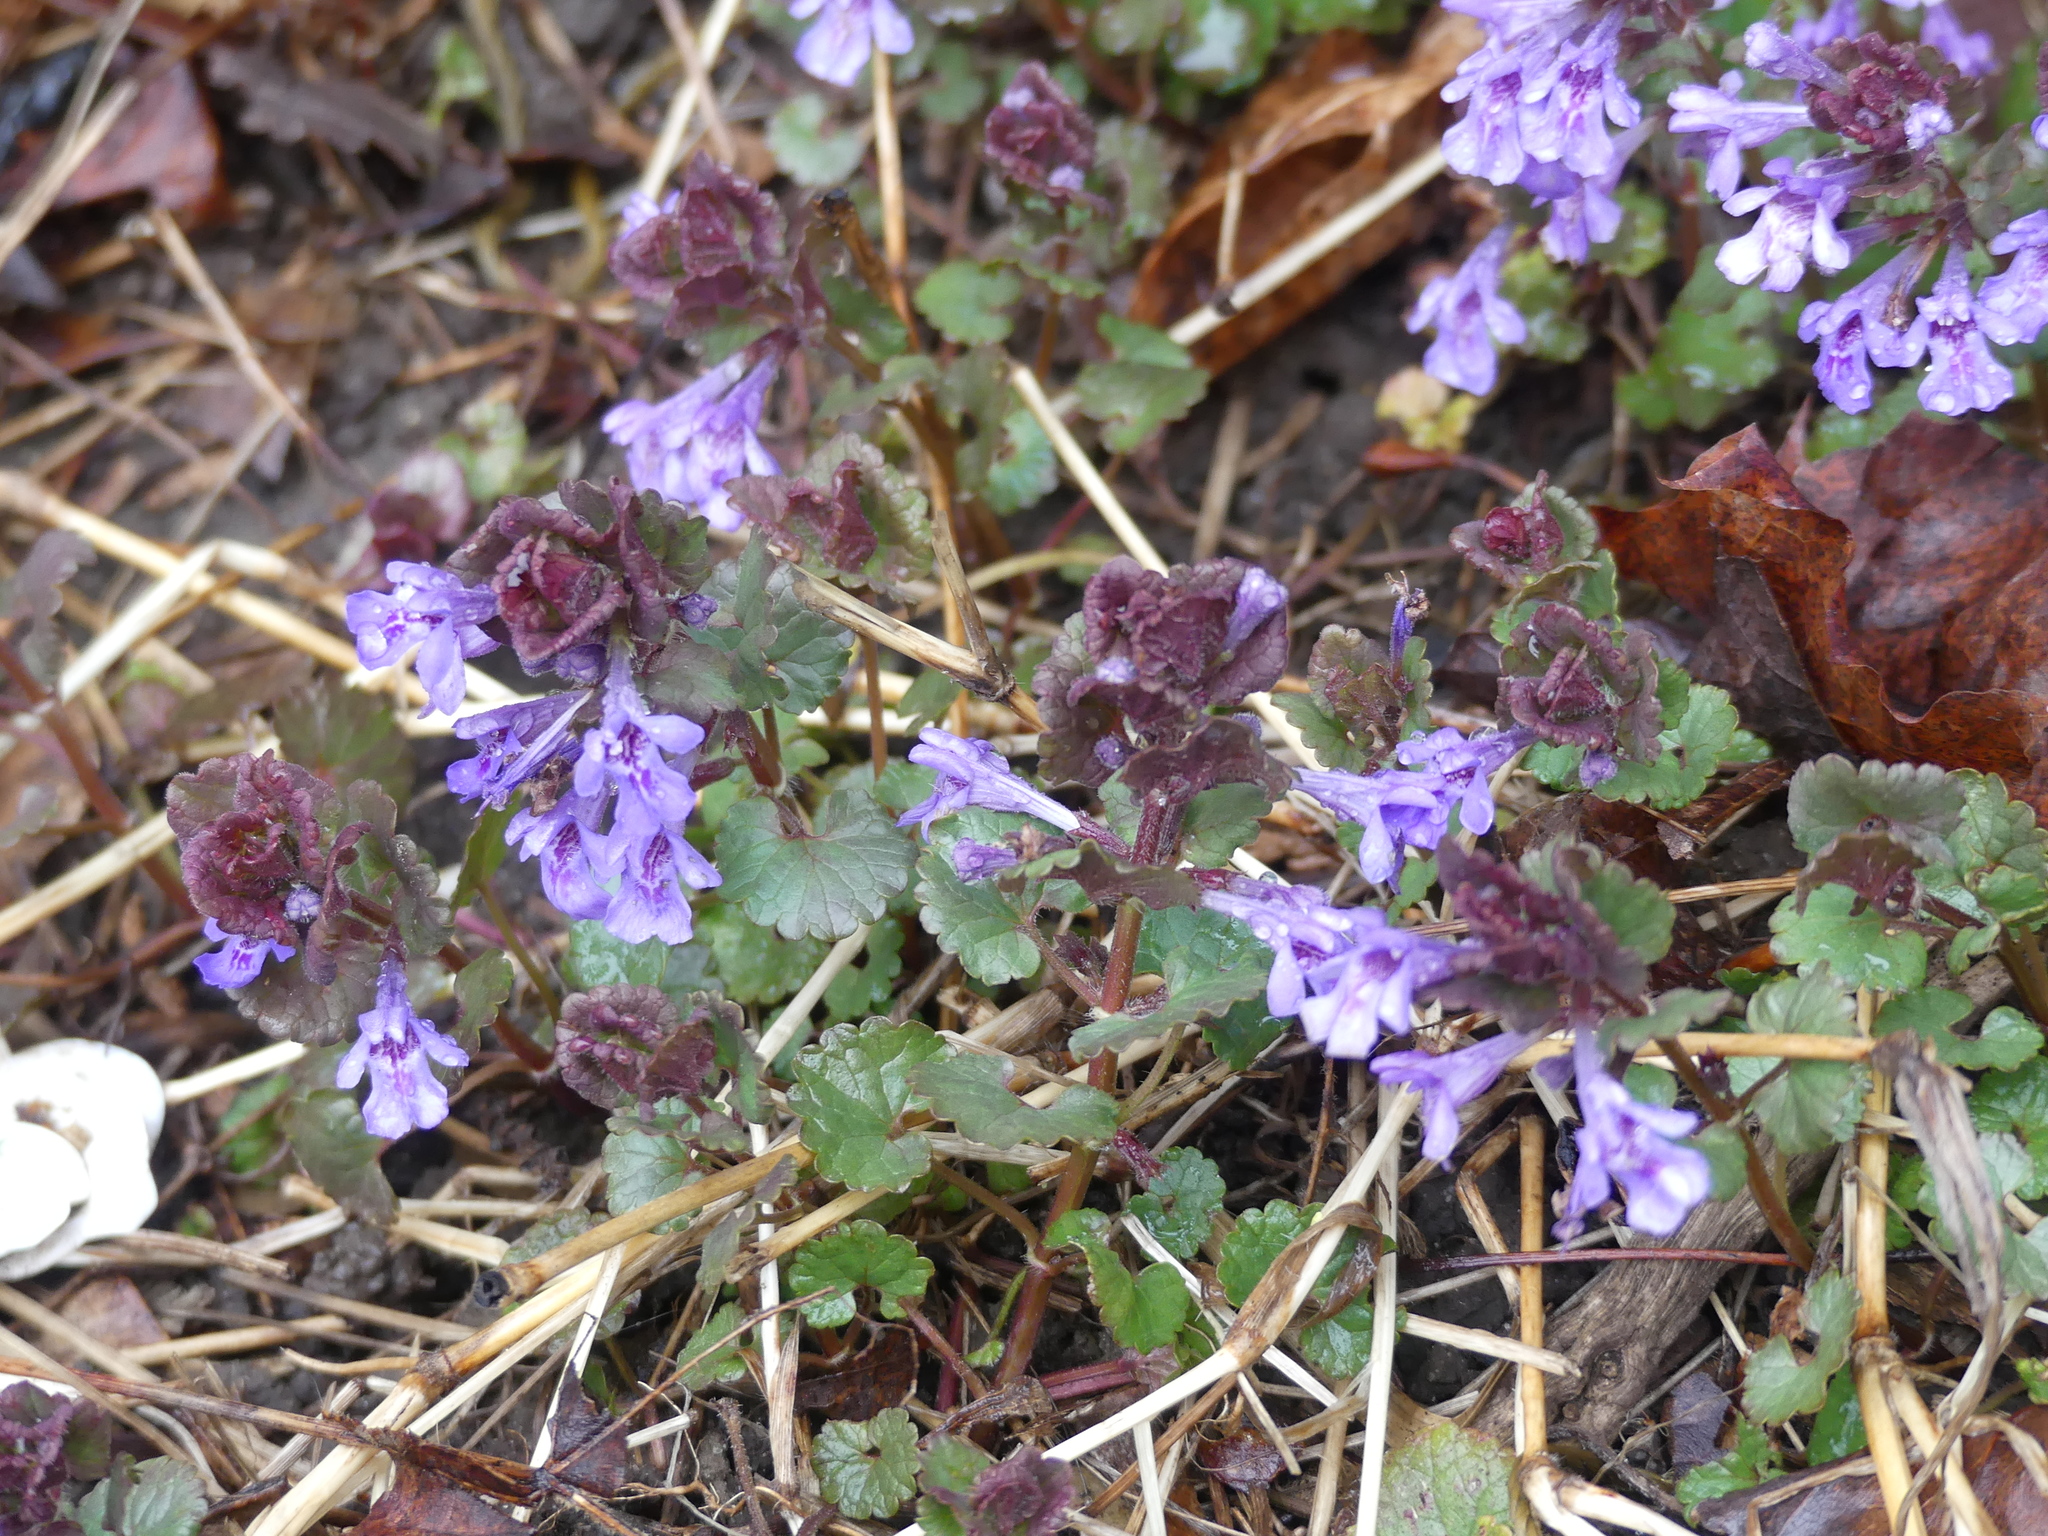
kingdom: Plantae
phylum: Tracheophyta
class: Magnoliopsida
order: Lamiales
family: Lamiaceae
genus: Glechoma
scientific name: Glechoma hederacea
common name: Ground ivy
